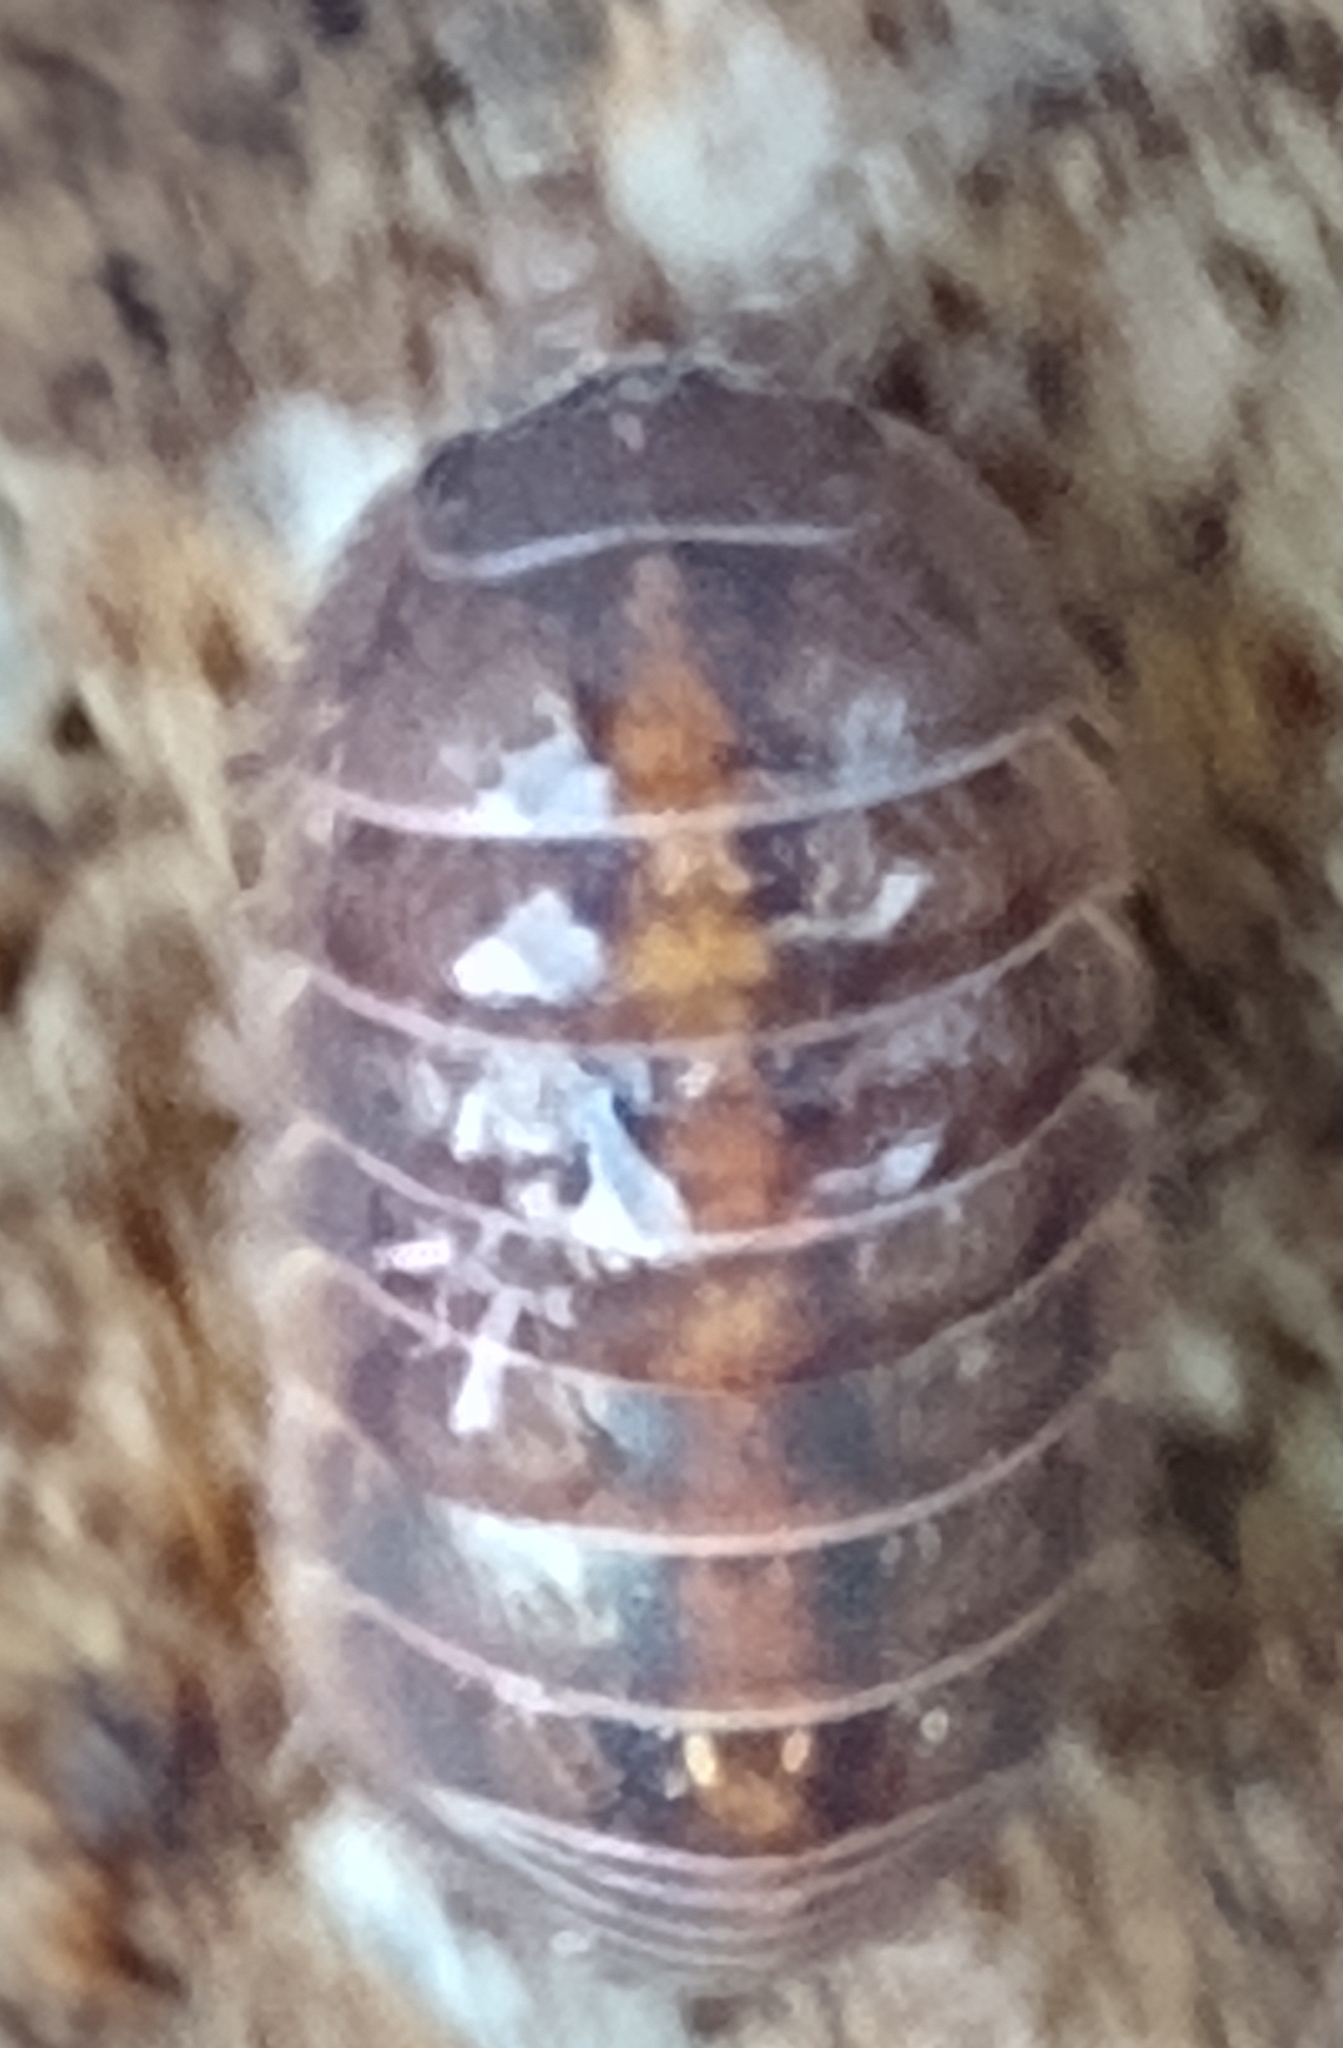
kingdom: Animalia
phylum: Arthropoda
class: Malacostraca
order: Isopoda
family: Armadillidiidae
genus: Armadillidium
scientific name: Armadillidium vulgare
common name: Common pill woodlouse
